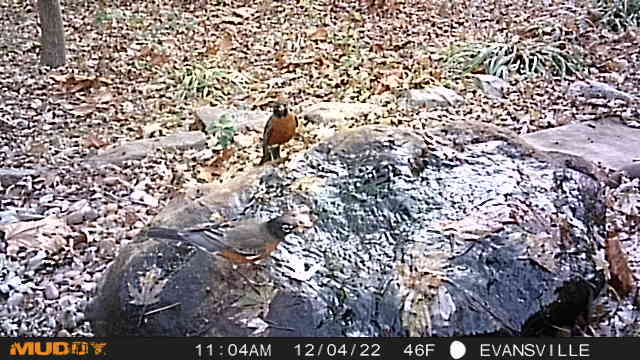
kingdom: Animalia
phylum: Chordata
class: Aves
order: Passeriformes
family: Turdidae
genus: Turdus
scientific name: Turdus migratorius
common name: American robin
